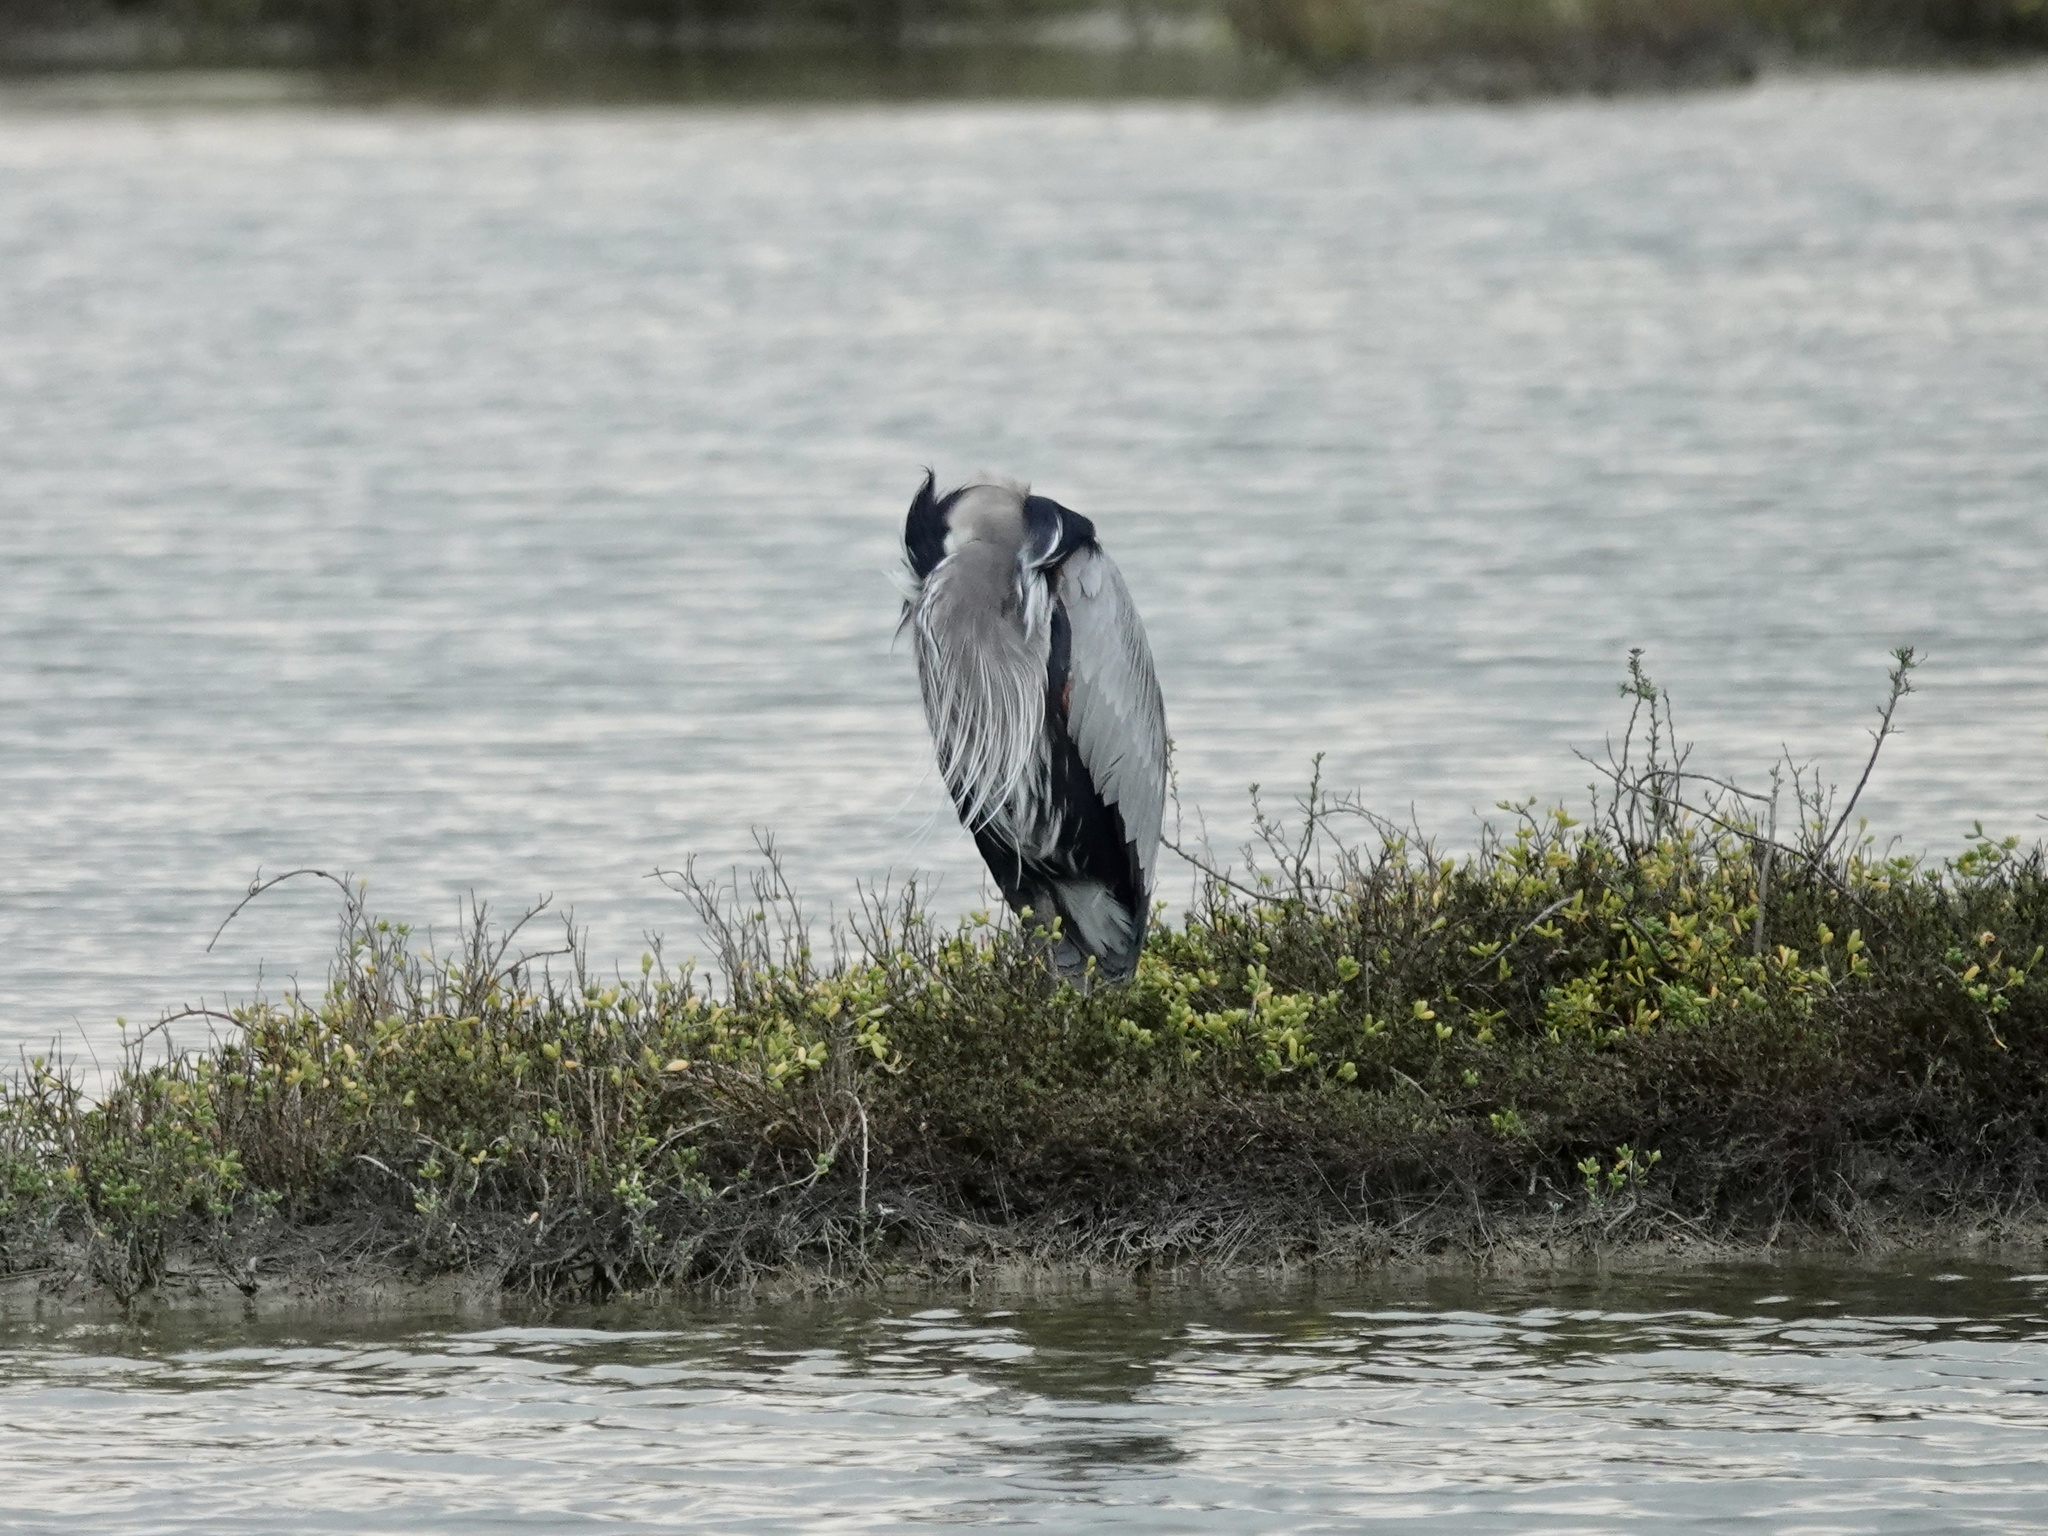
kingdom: Animalia
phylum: Chordata
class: Aves
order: Pelecaniformes
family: Ardeidae
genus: Ardea
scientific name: Ardea herodias
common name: Great blue heron
